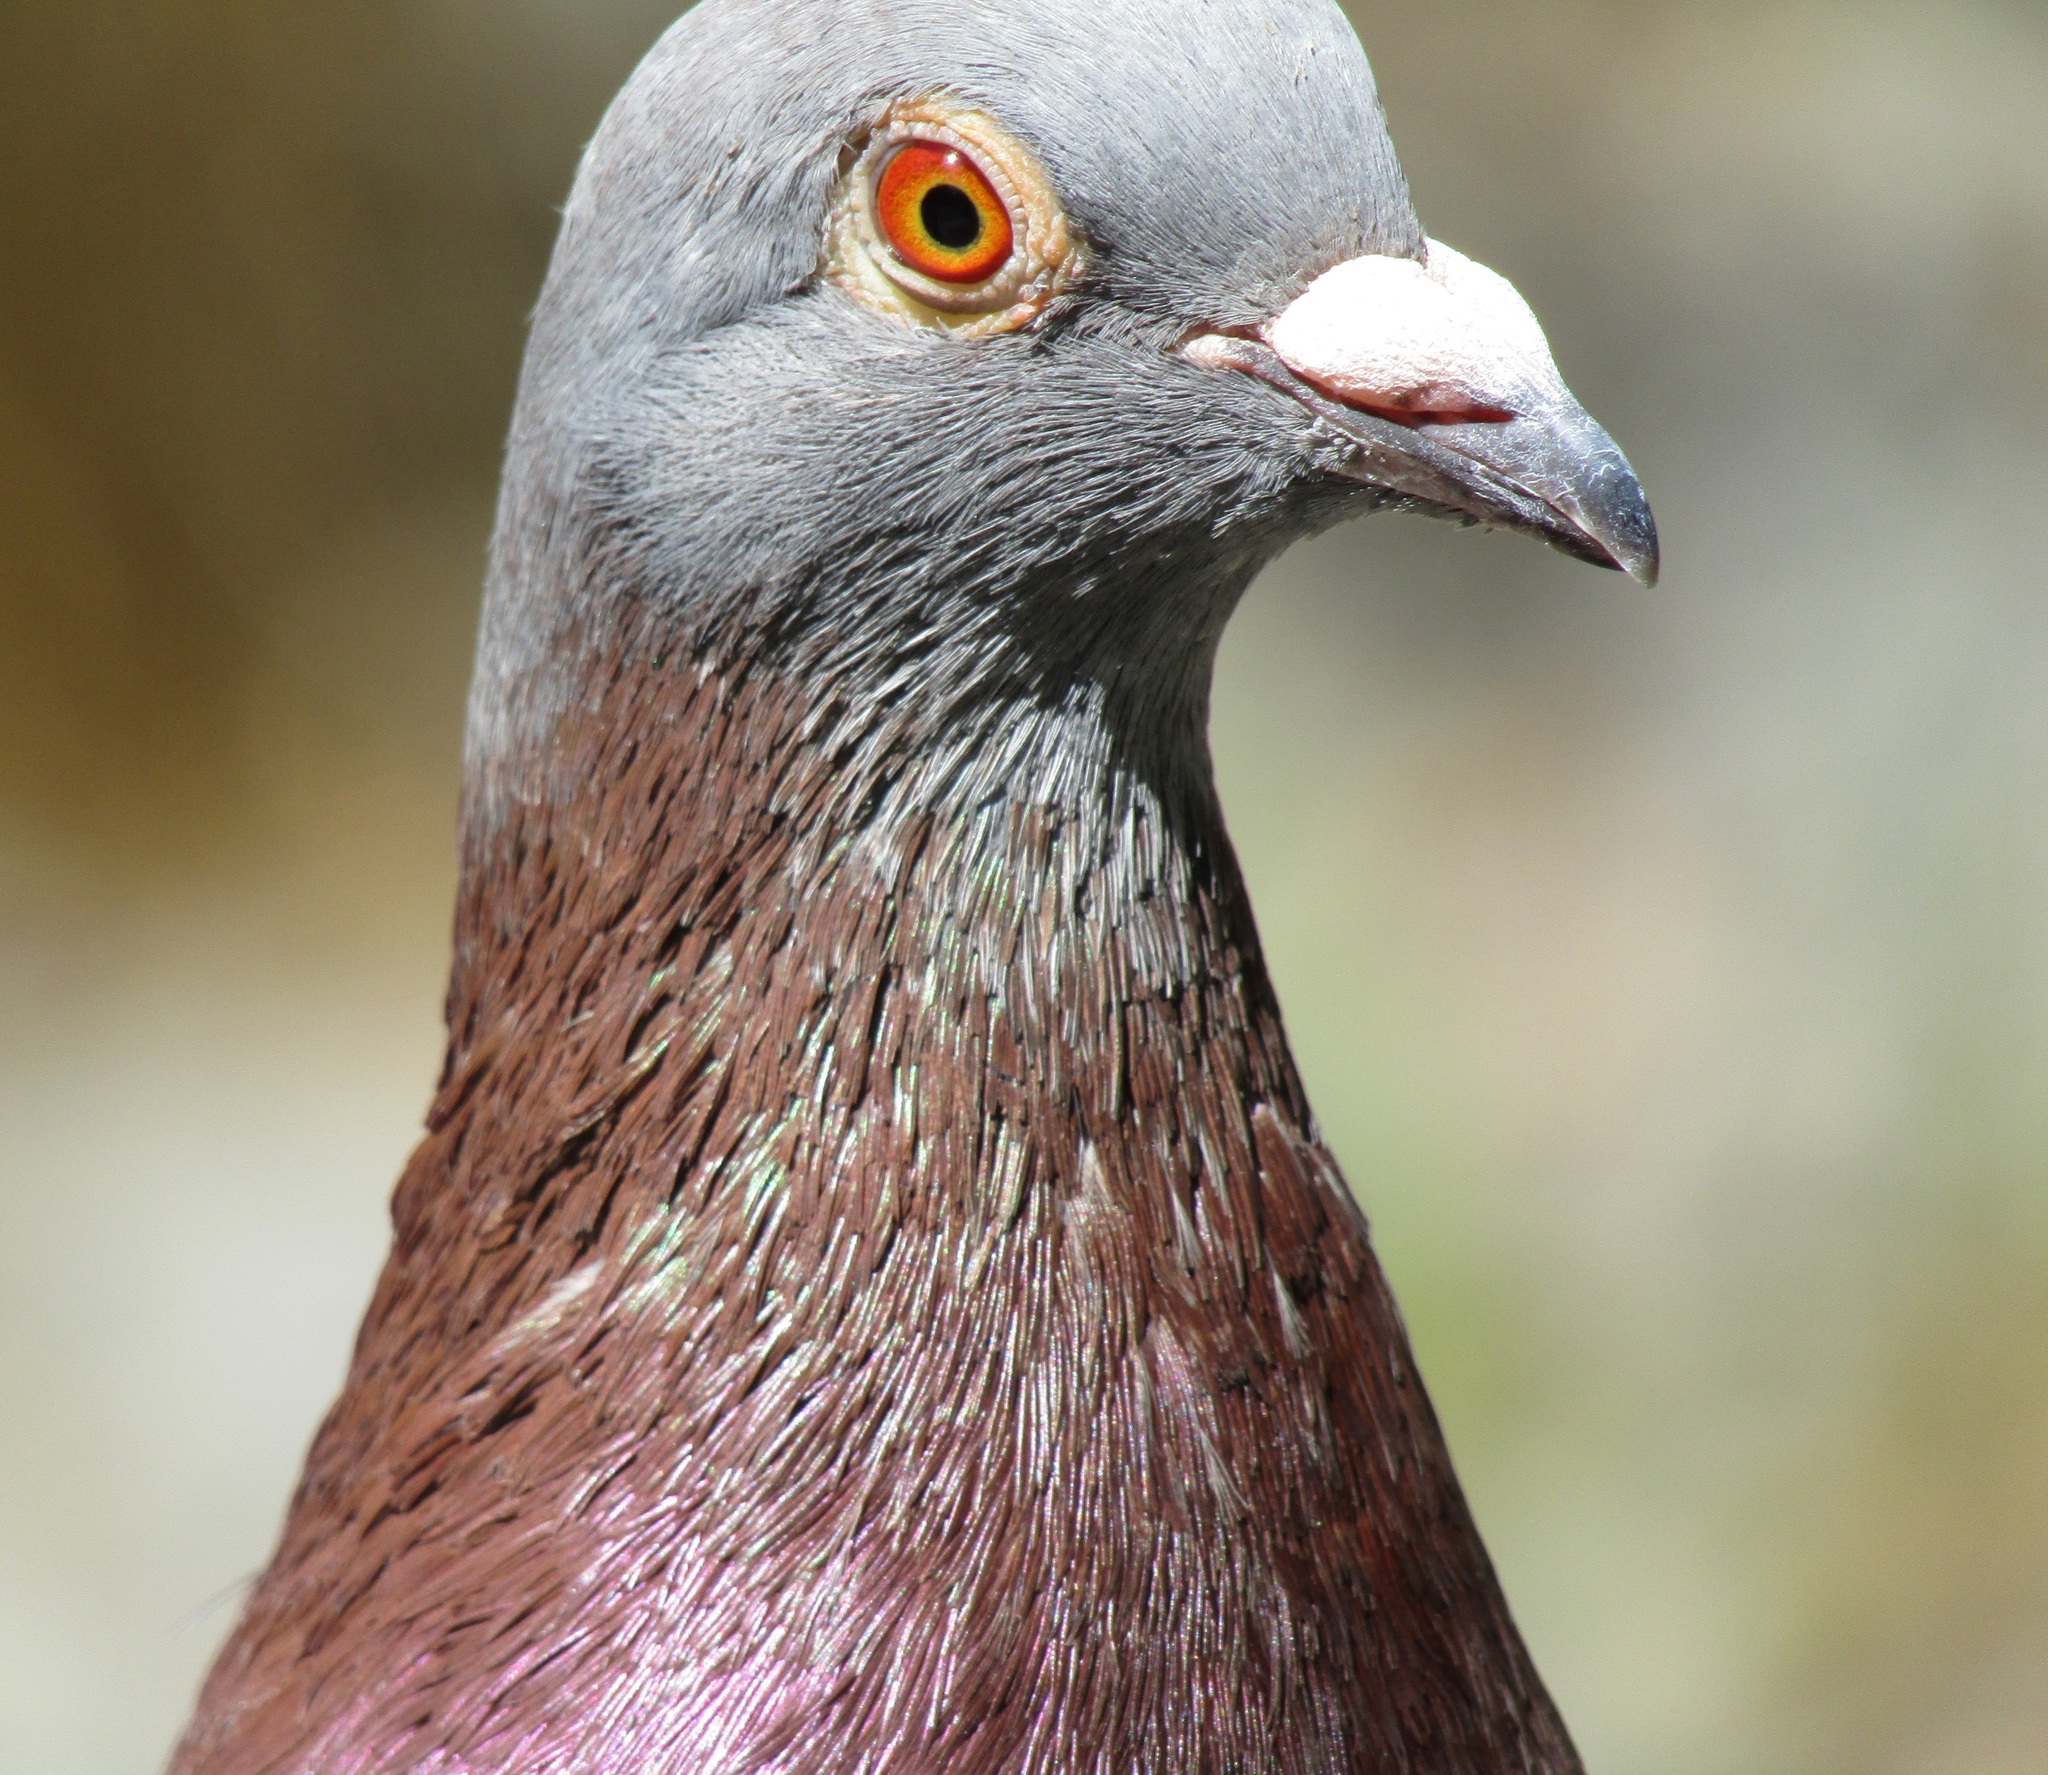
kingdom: Animalia
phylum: Chordata
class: Aves
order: Columbiformes
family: Columbidae
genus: Columba
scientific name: Columba livia
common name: Rock pigeon
